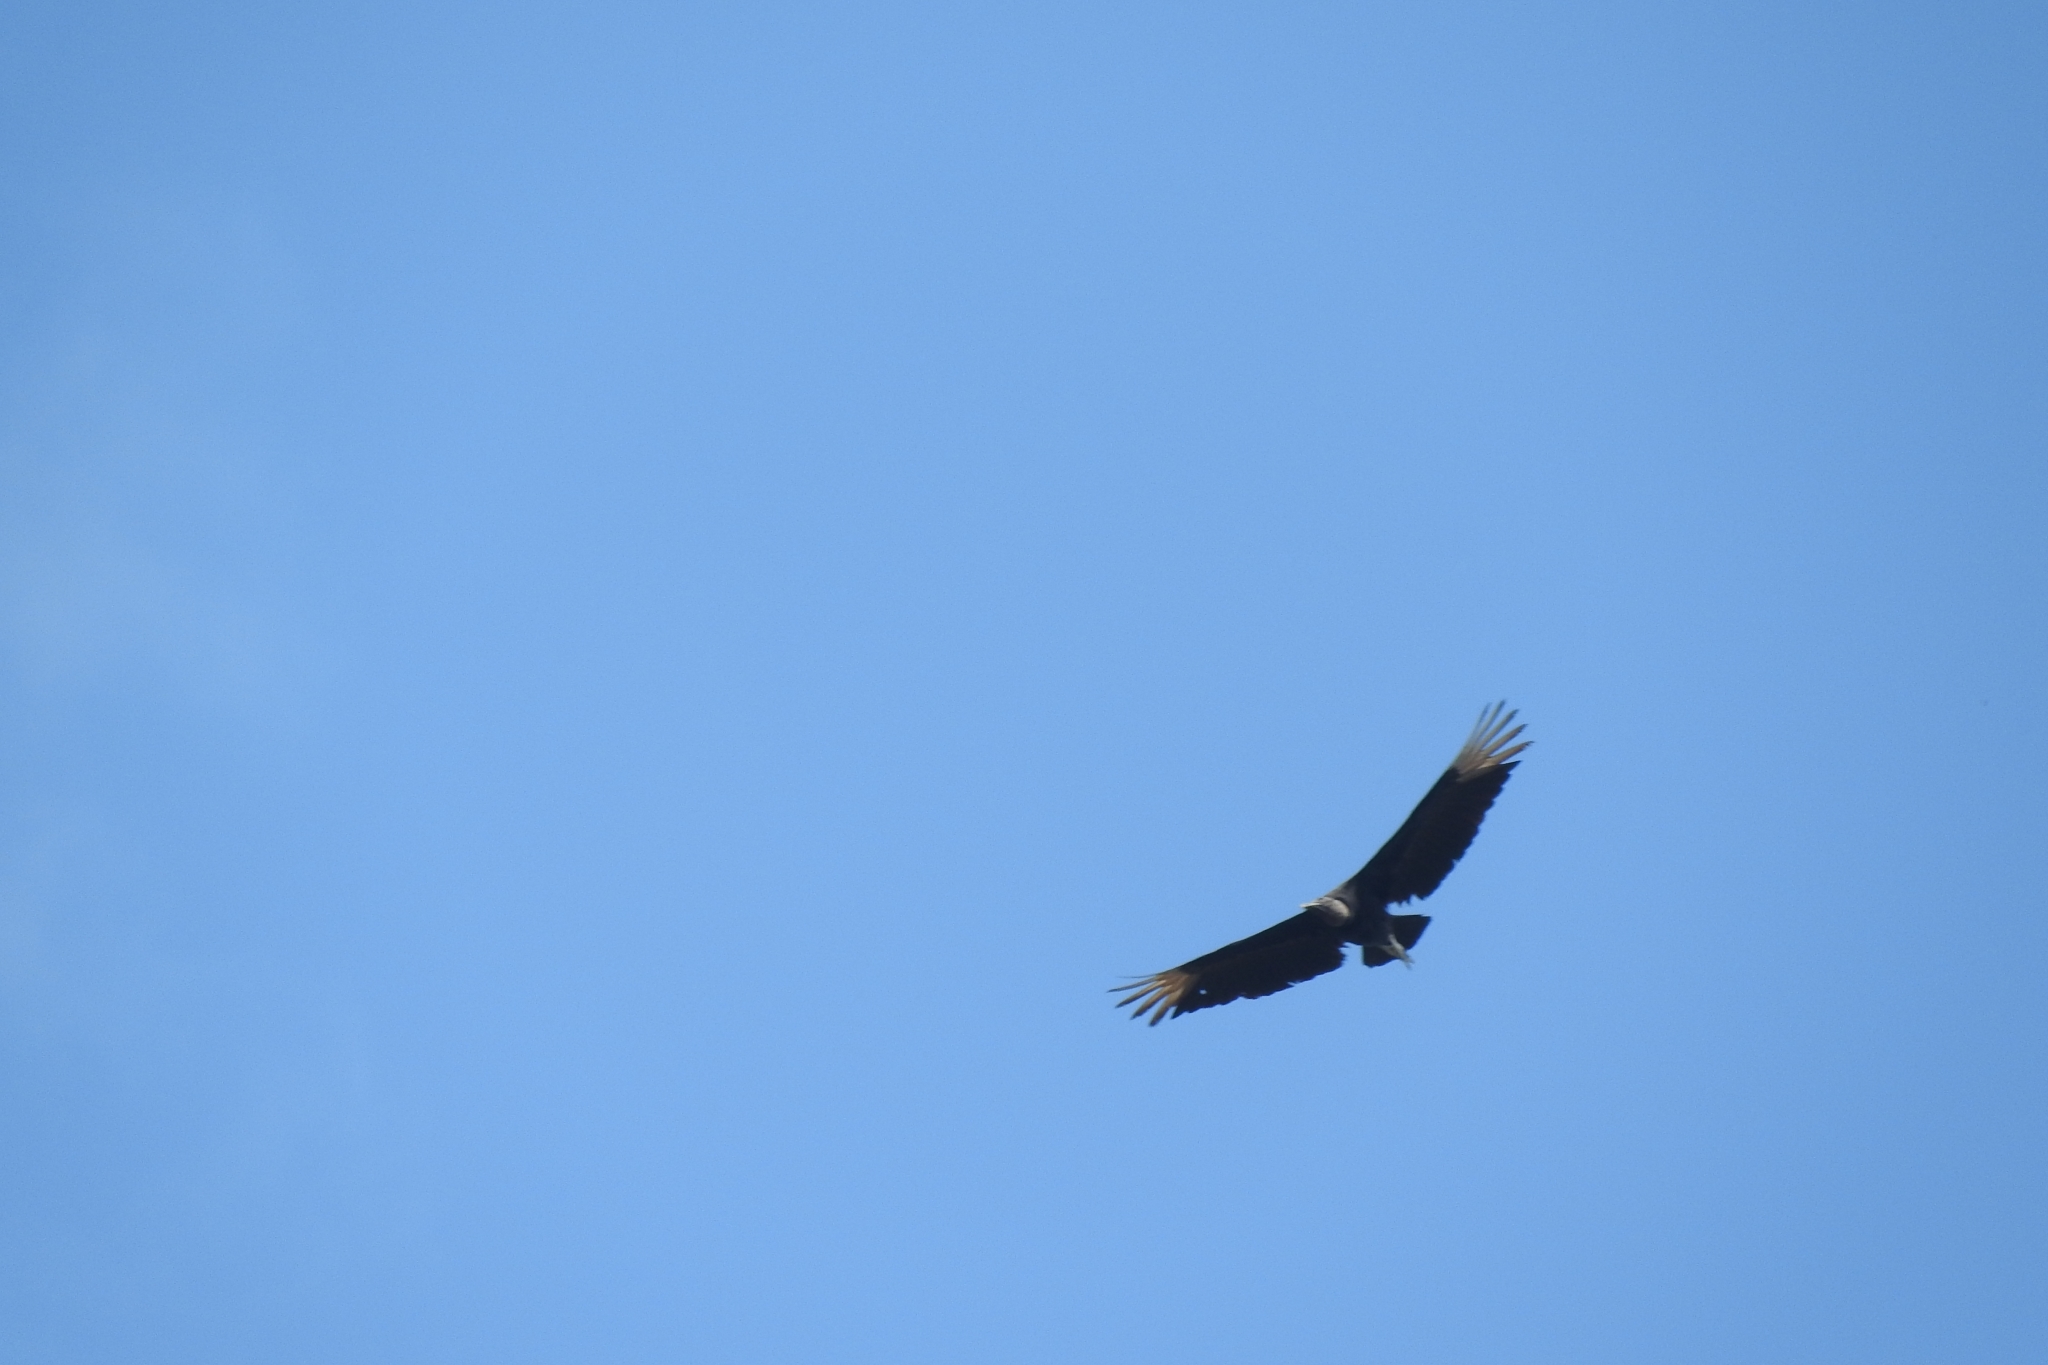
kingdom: Animalia
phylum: Chordata
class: Aves
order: Accipitriformes
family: Cathartidae
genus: Coragyps
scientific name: Coragyps atratus
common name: Black vulture
